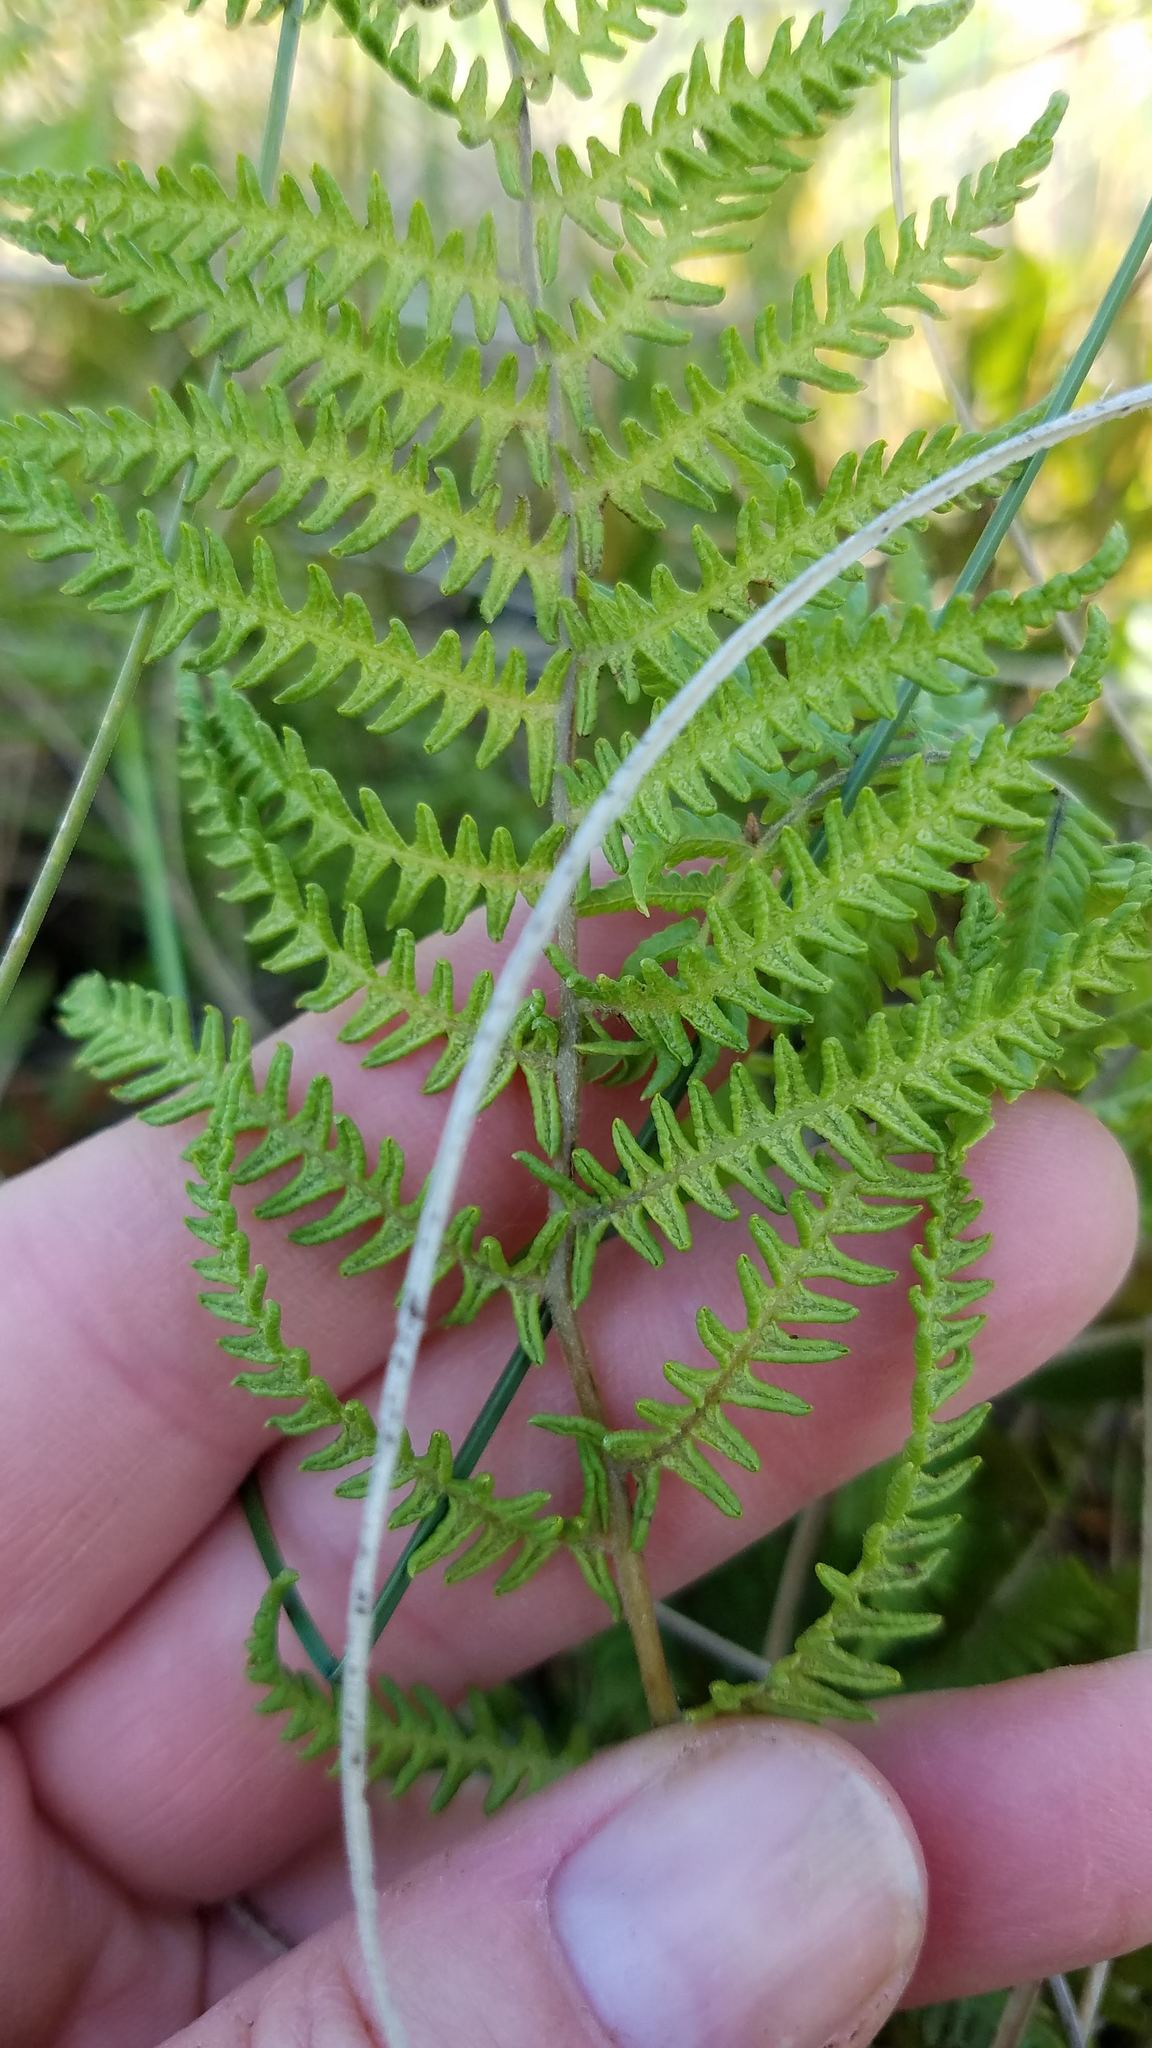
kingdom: Plantae
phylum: Tracheophyta
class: Polypodiopsida
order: Polypodiales
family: Thelypteridaceae
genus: Thelypteris
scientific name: Thelypteris palustris
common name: Marsh fern
